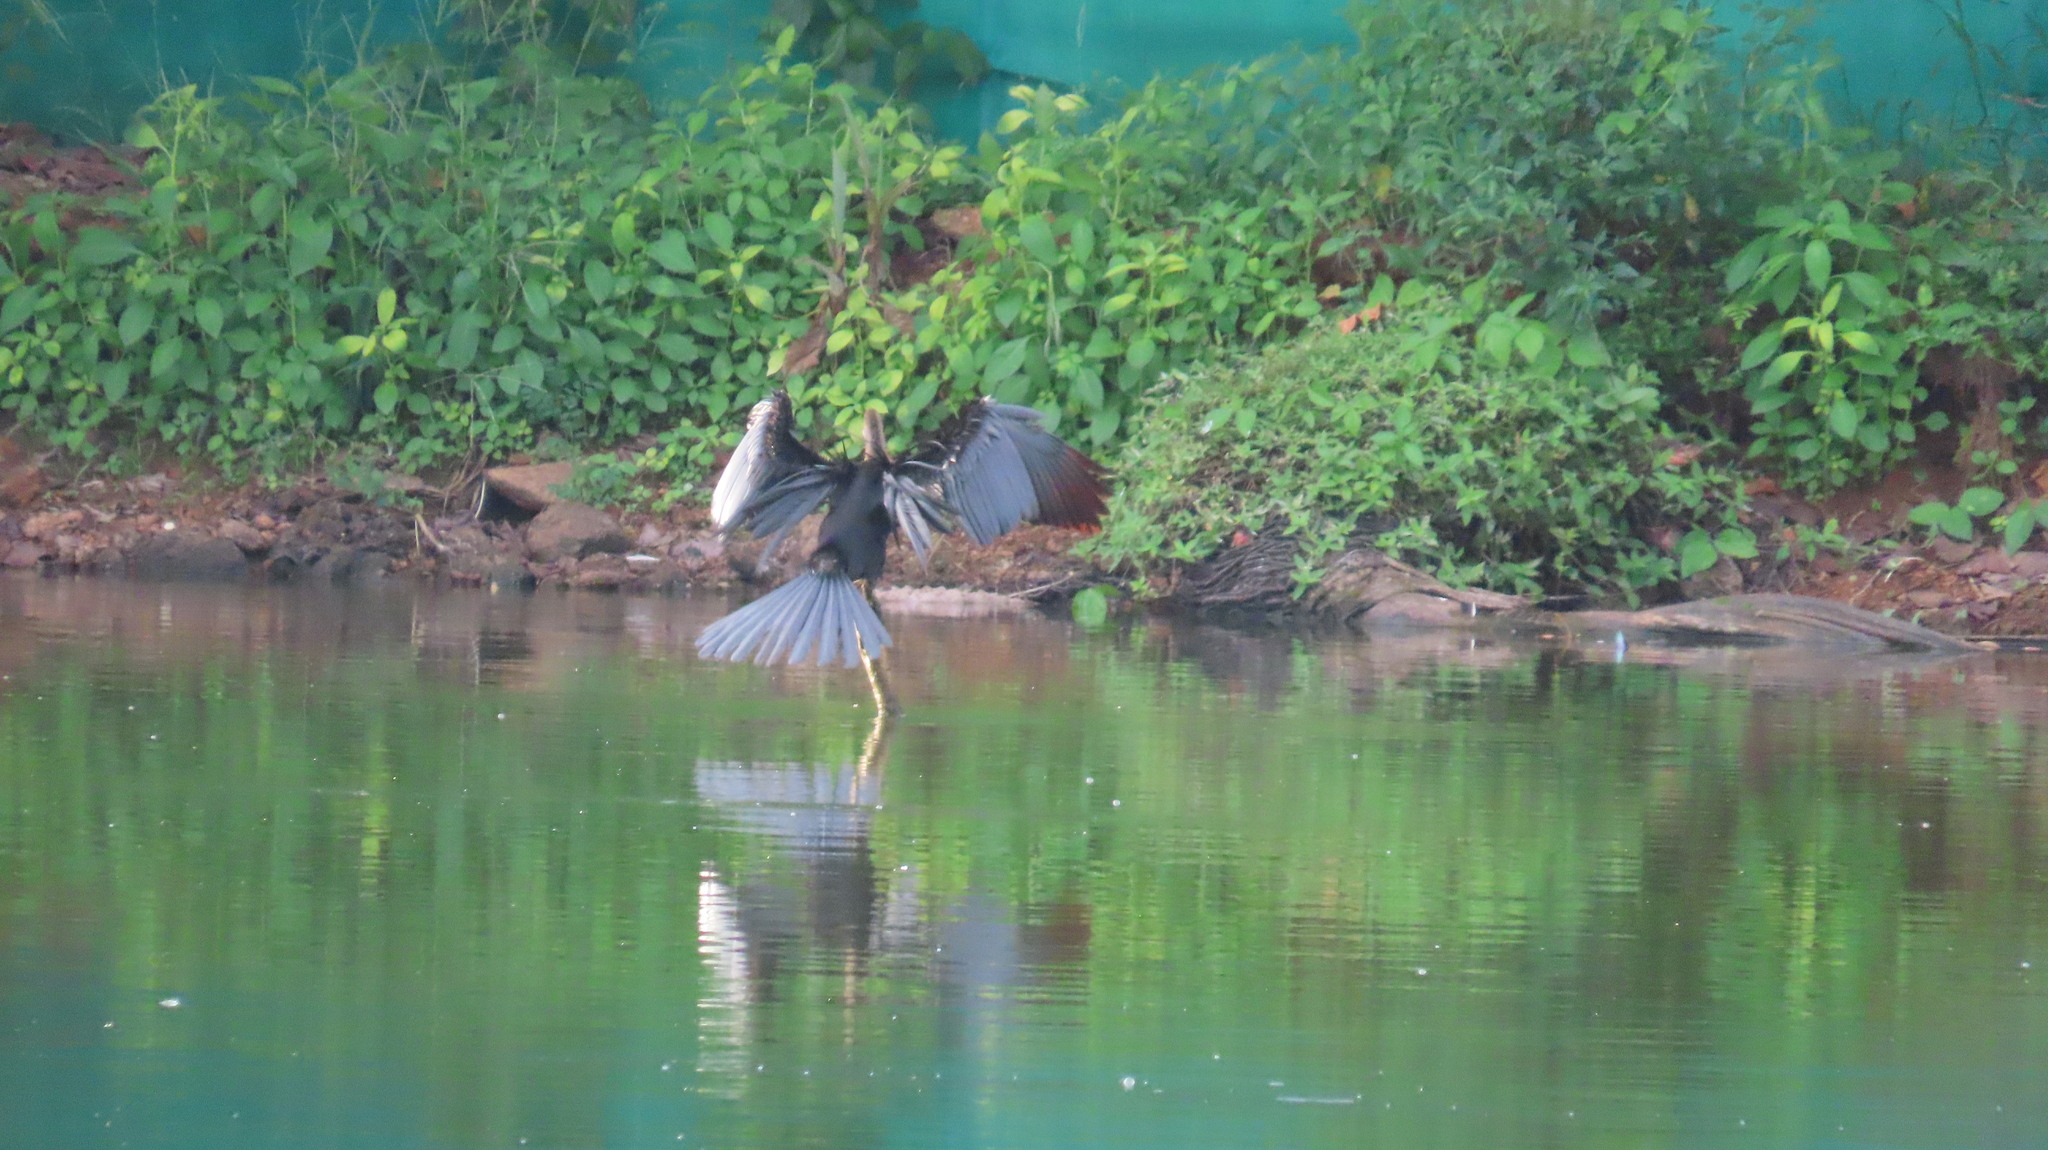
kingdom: Animalia
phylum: Chordata
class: Aves
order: Suliformes
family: Anhingidae
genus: Anhinga
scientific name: Anhinga melanogaster
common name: Oriental darter
